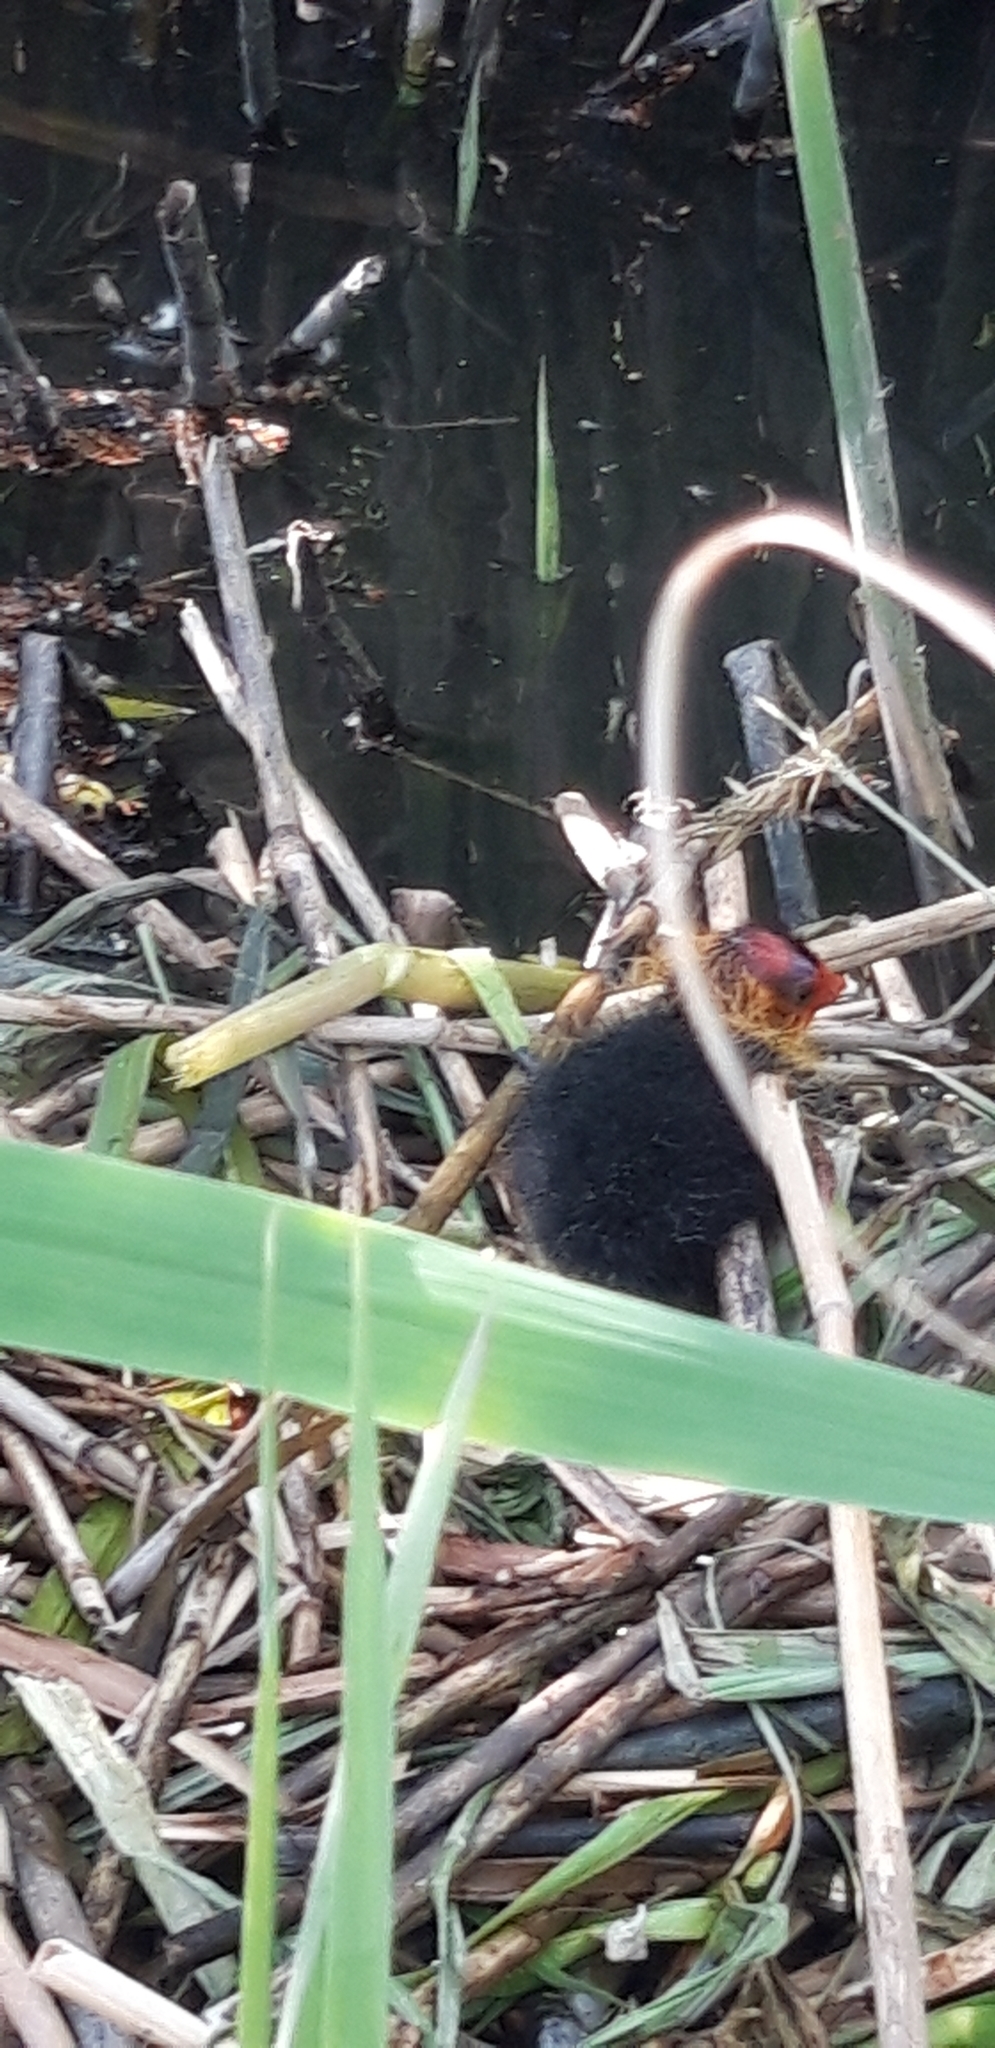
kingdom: Animalia
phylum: Chordata
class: Aves
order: Gruiformes
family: Rallidae
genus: Fulica
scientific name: Fulica atra
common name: Eurasian coot
